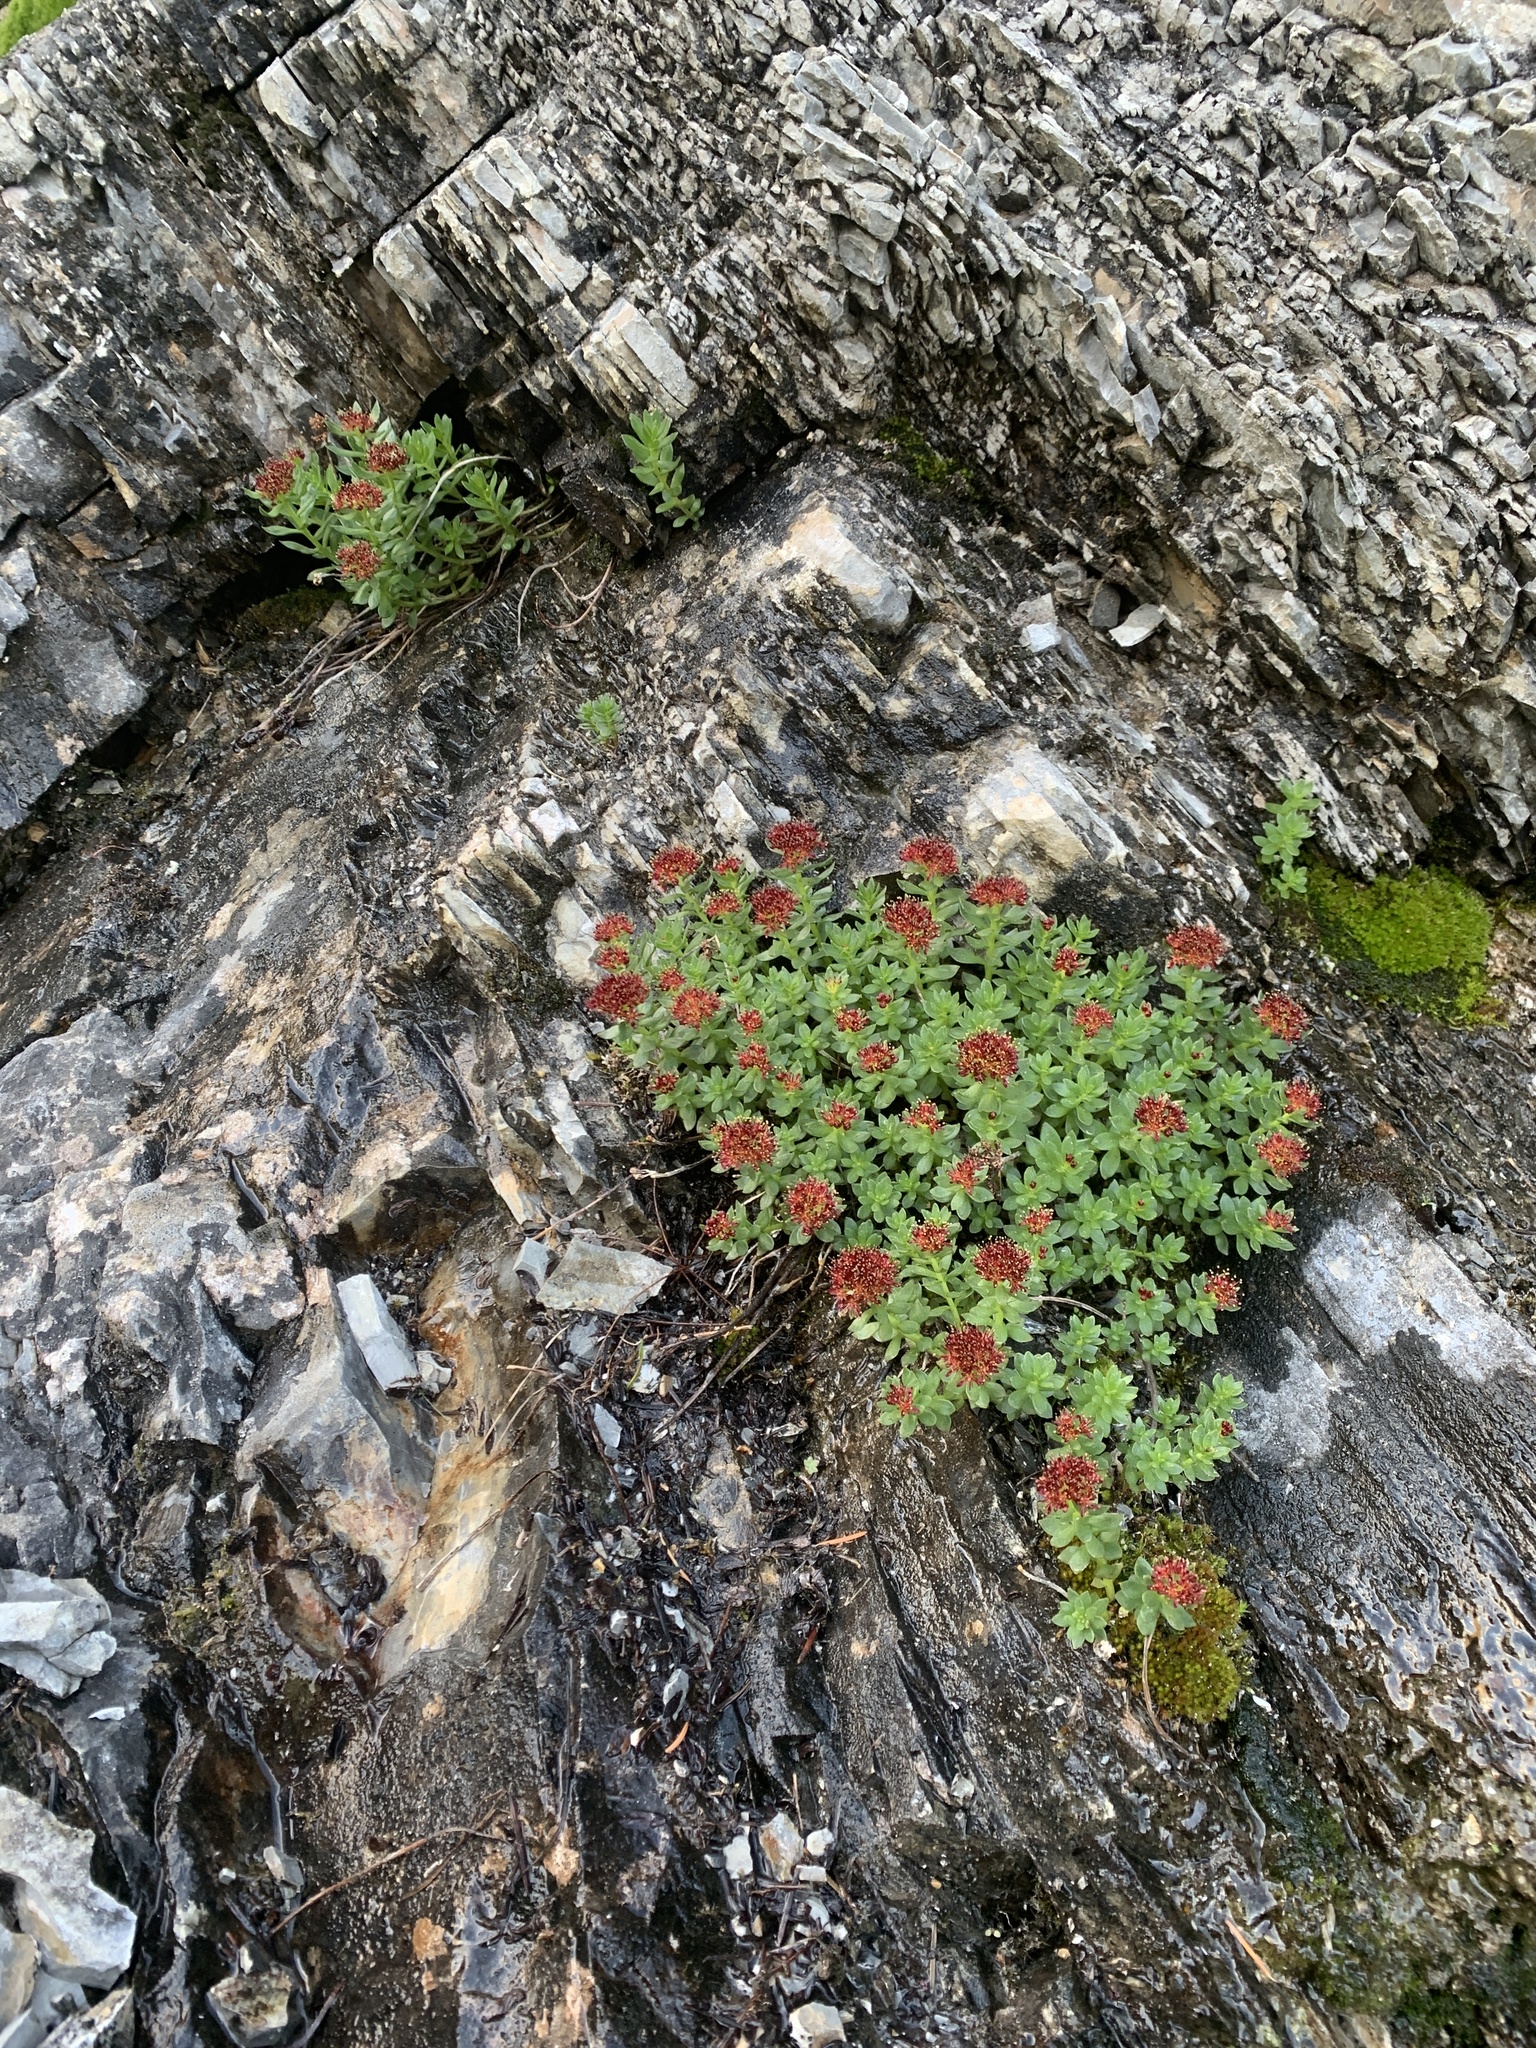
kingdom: Plantae
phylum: Tracheophyta
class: Magnoliopsida
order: Saxifragales
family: Crassulaceae
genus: Rhodiola
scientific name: Rhodiola integrifolia
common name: Western roseroot
